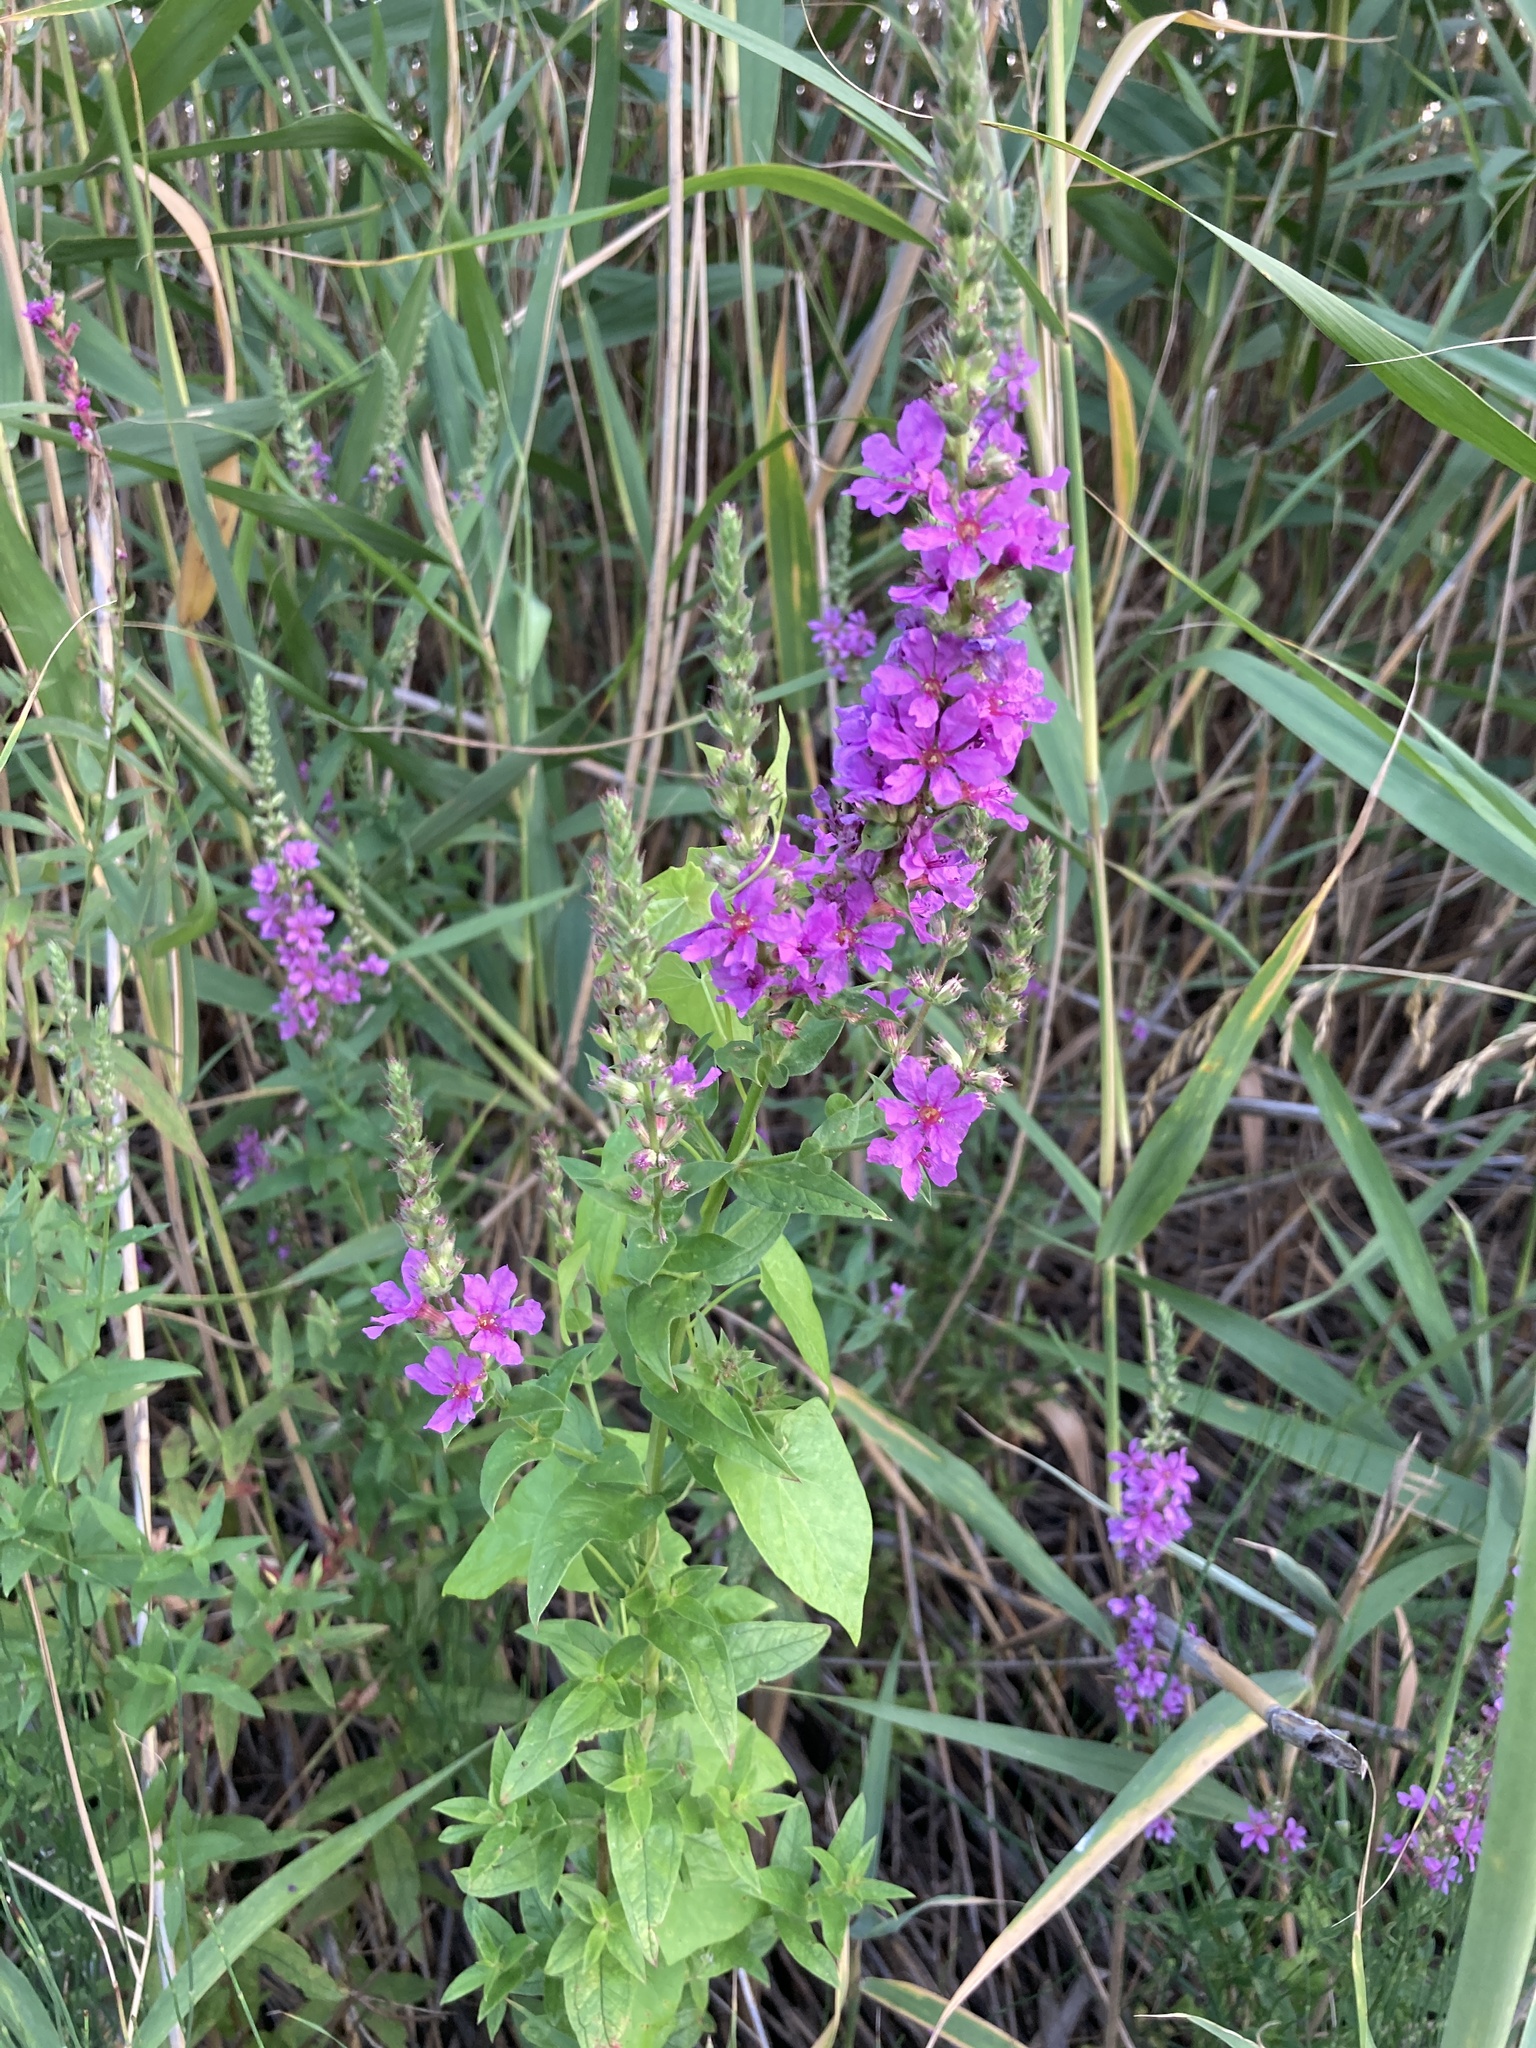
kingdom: Plantae
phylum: Tracheophyta
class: Magnoliopsida
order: Myrtales
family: Lythraceae
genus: Lythrum
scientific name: Lythrum salicaria
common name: Purple loosestrife
